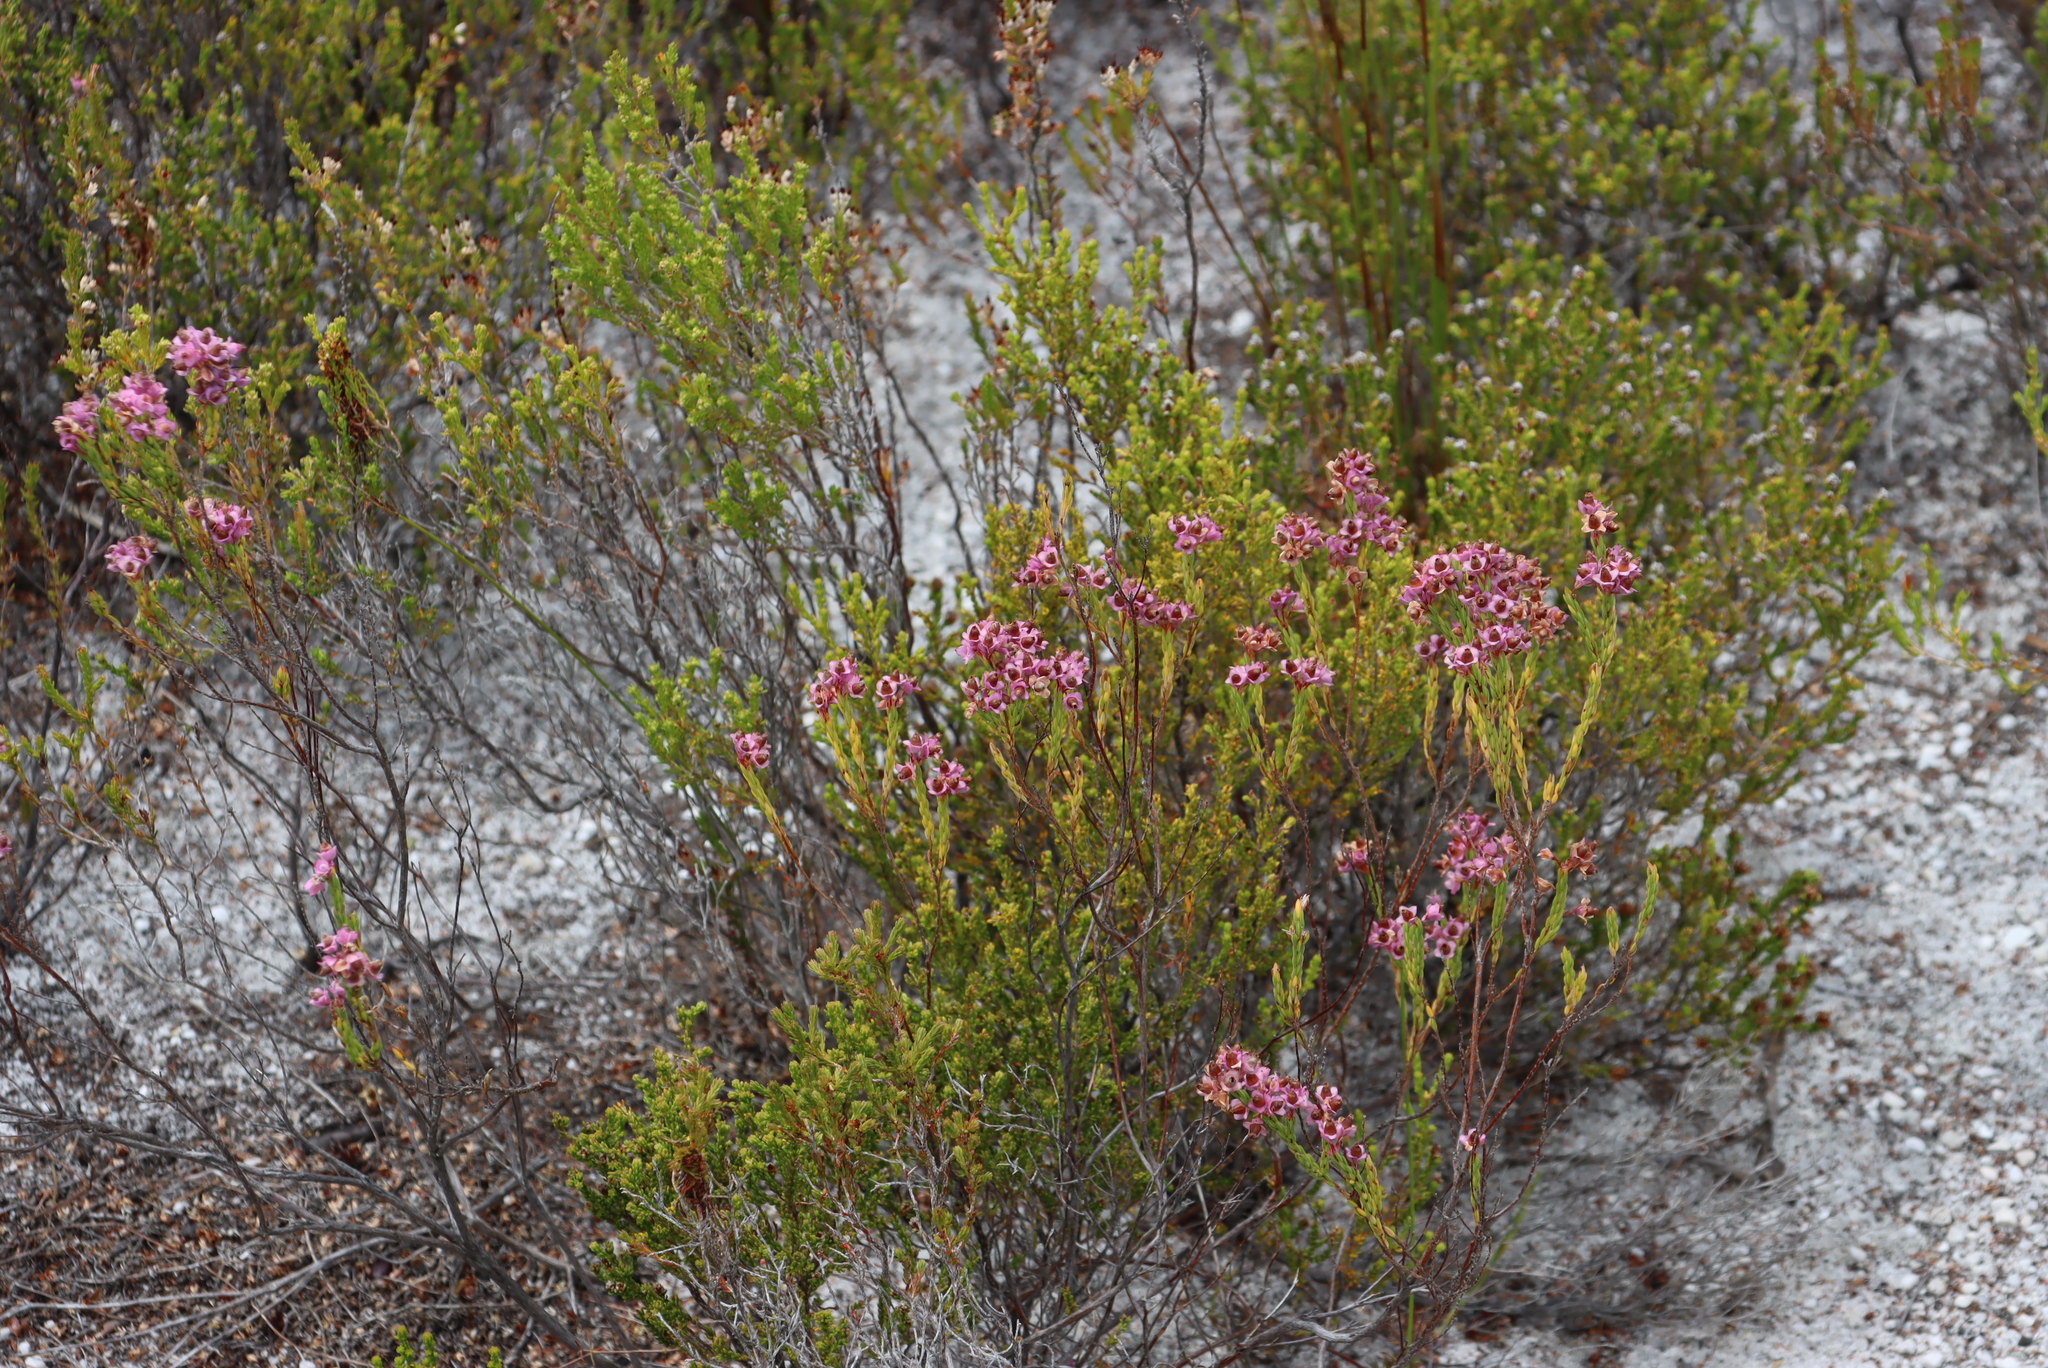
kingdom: Plantae
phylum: Tracheophyta
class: Magnoliopsida
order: Ericales
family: Ericaceae
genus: Erica
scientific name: Erica corifolia
